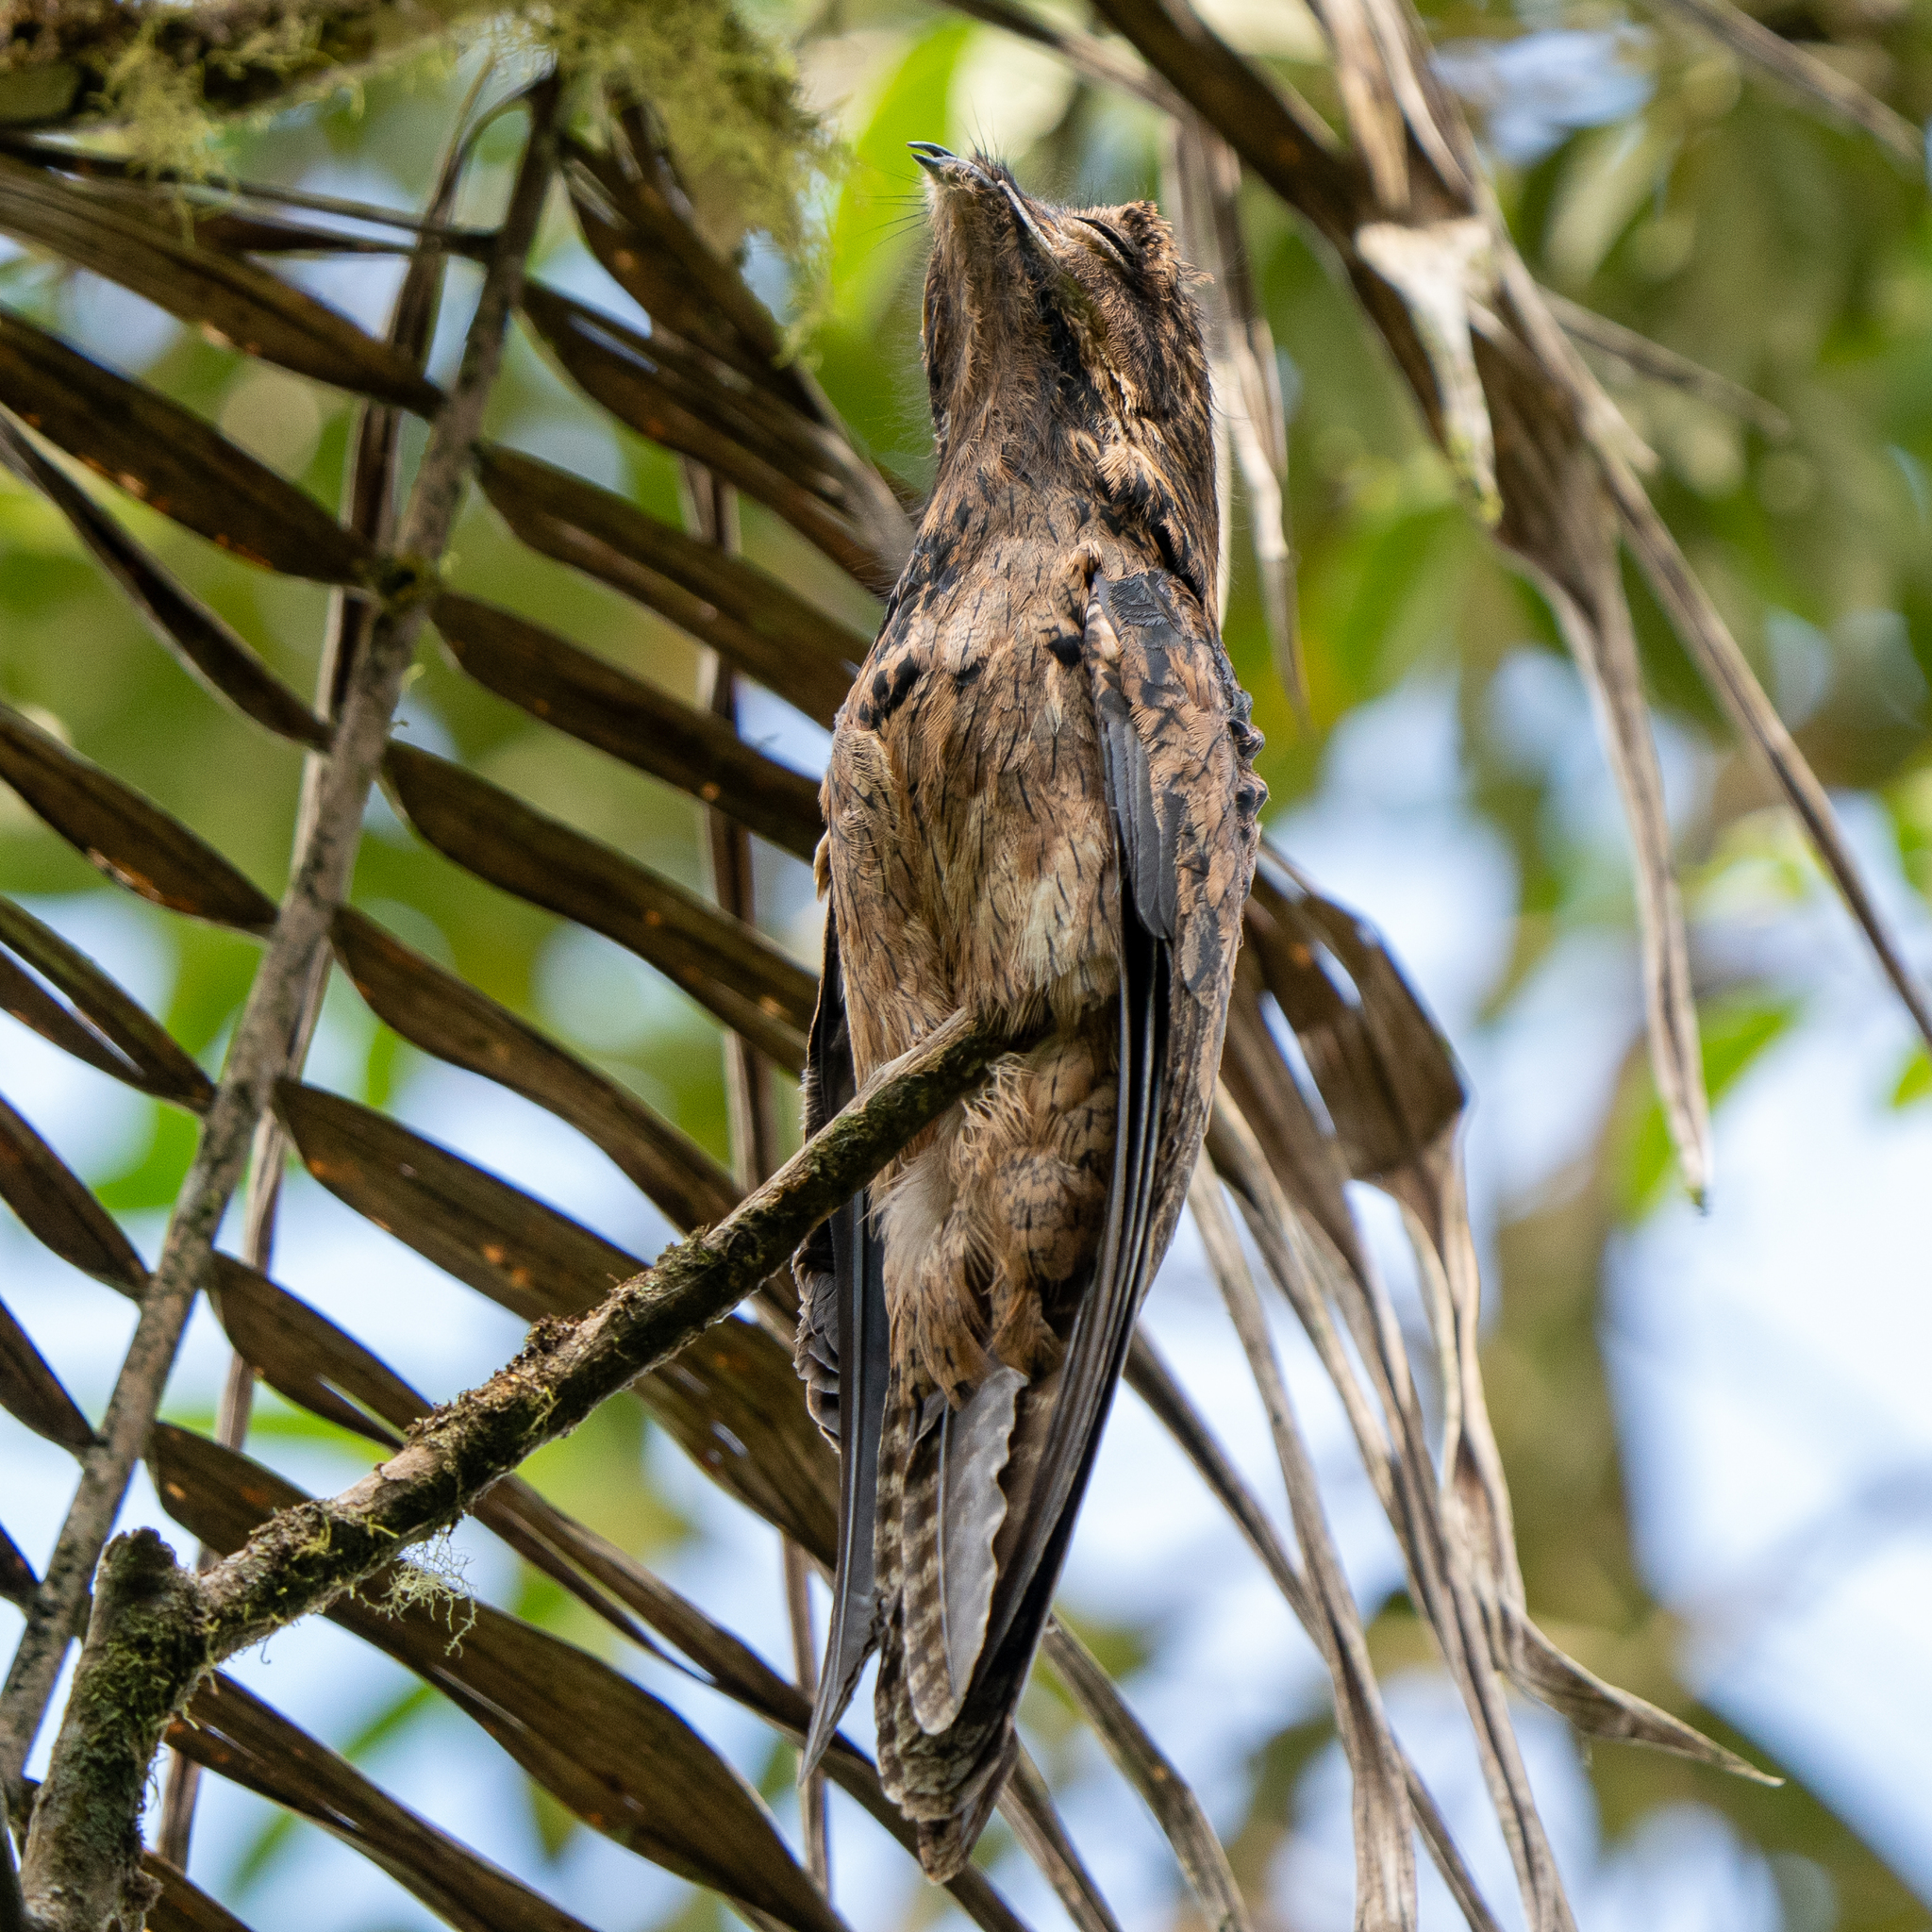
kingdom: Animalia
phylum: Chordata
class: Aves
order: Nyctibiiformes
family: Nyctibiidae
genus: Nyctibius
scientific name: Nyctibius griseus
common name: Common potoo
